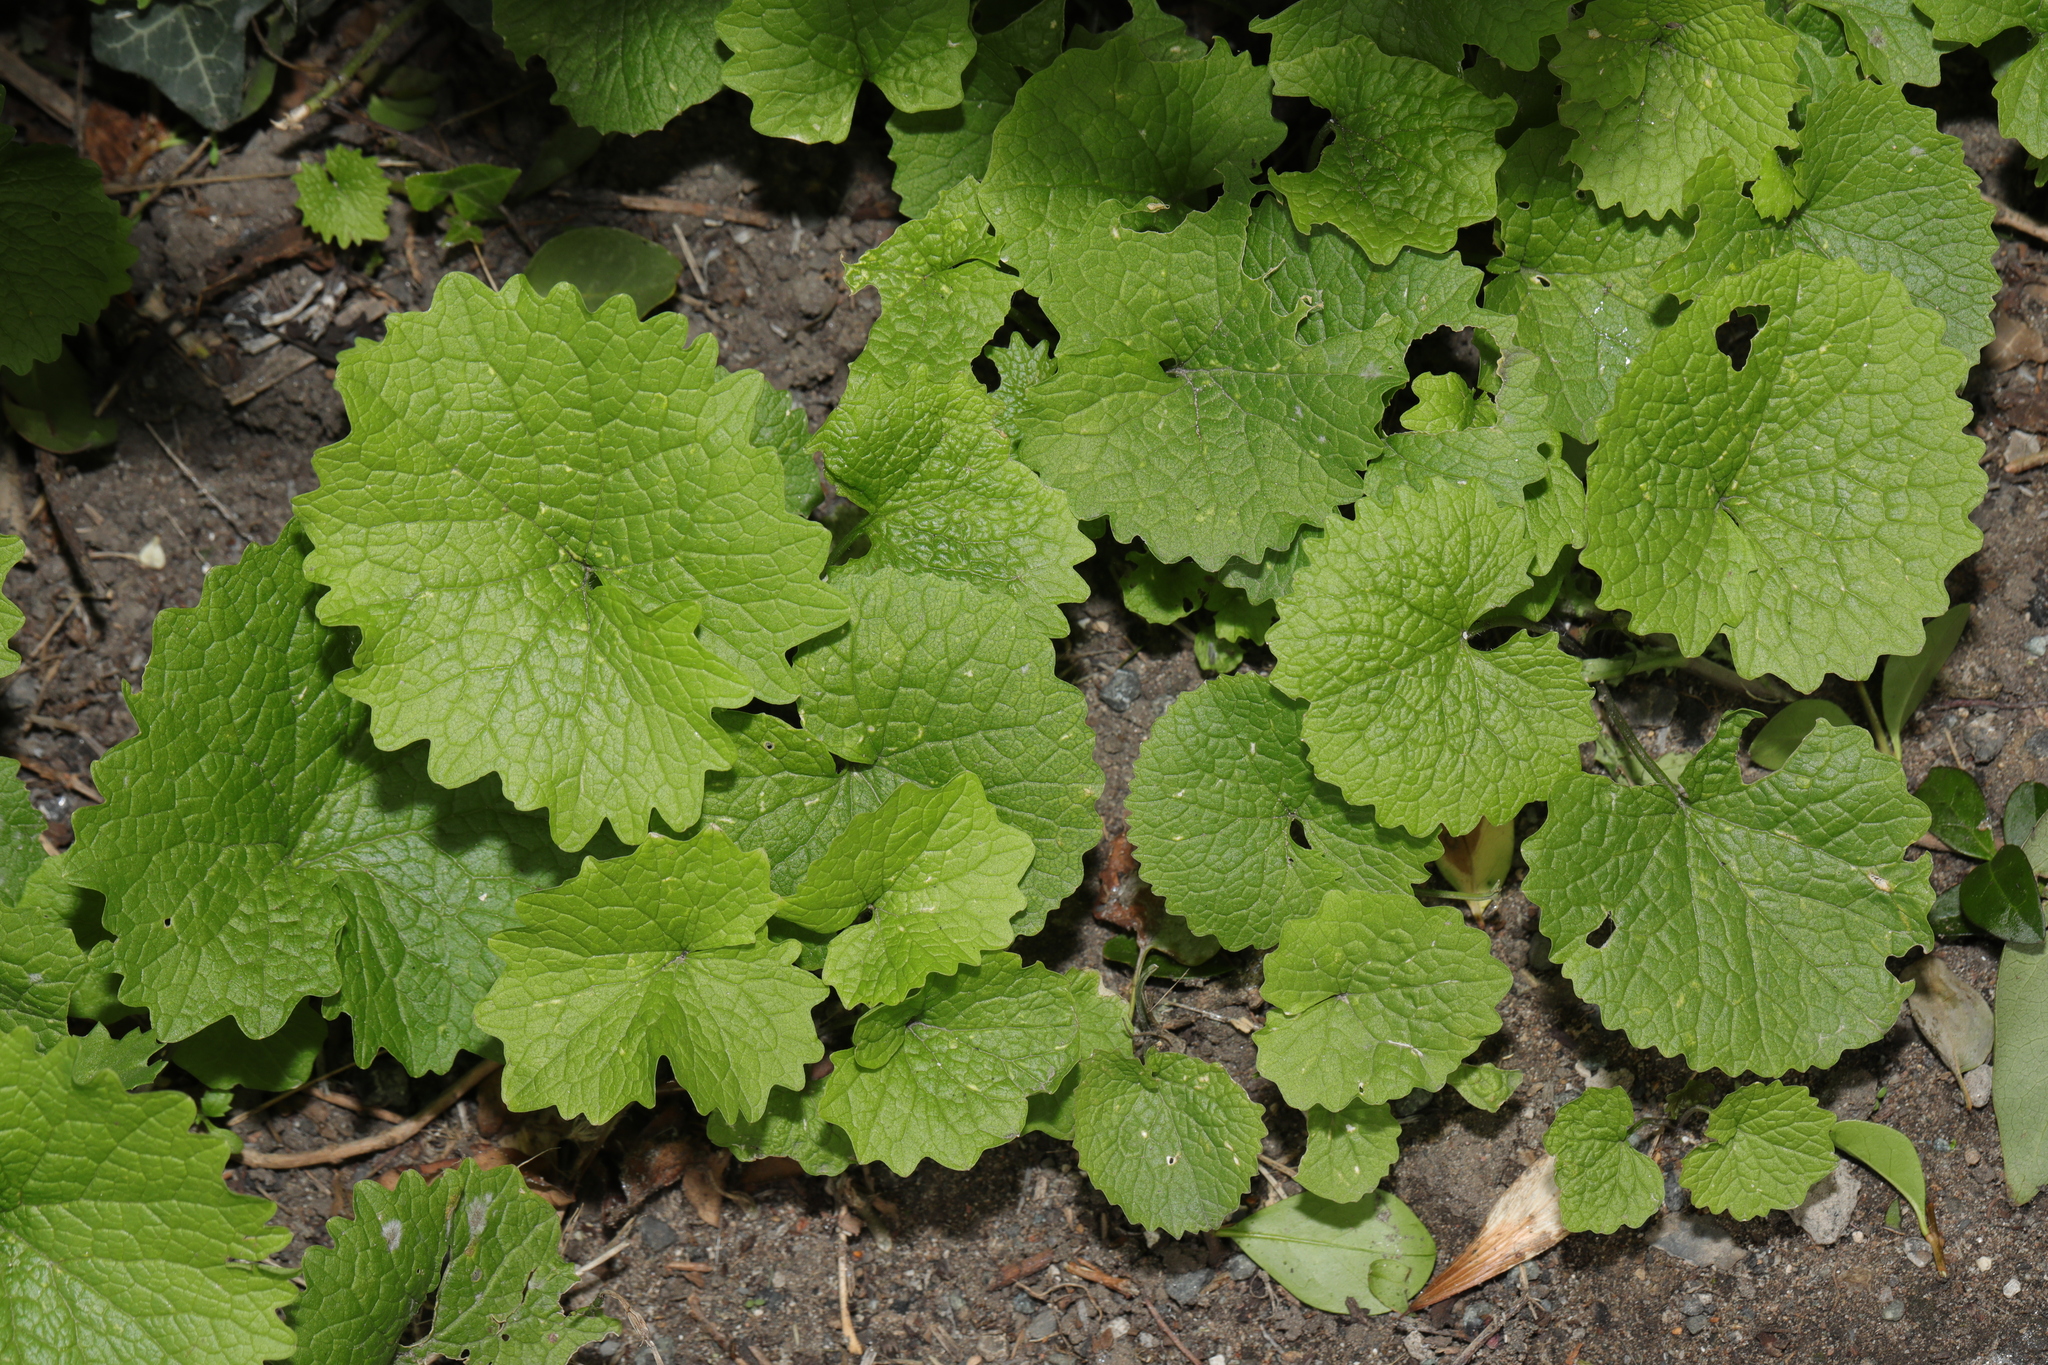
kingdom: Plantae
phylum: Tracheophyta
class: Magnoliopsida
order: Brassicales
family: Brassicaceae
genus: Alliaria
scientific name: Alliaria petiolata
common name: Garlic mustard
